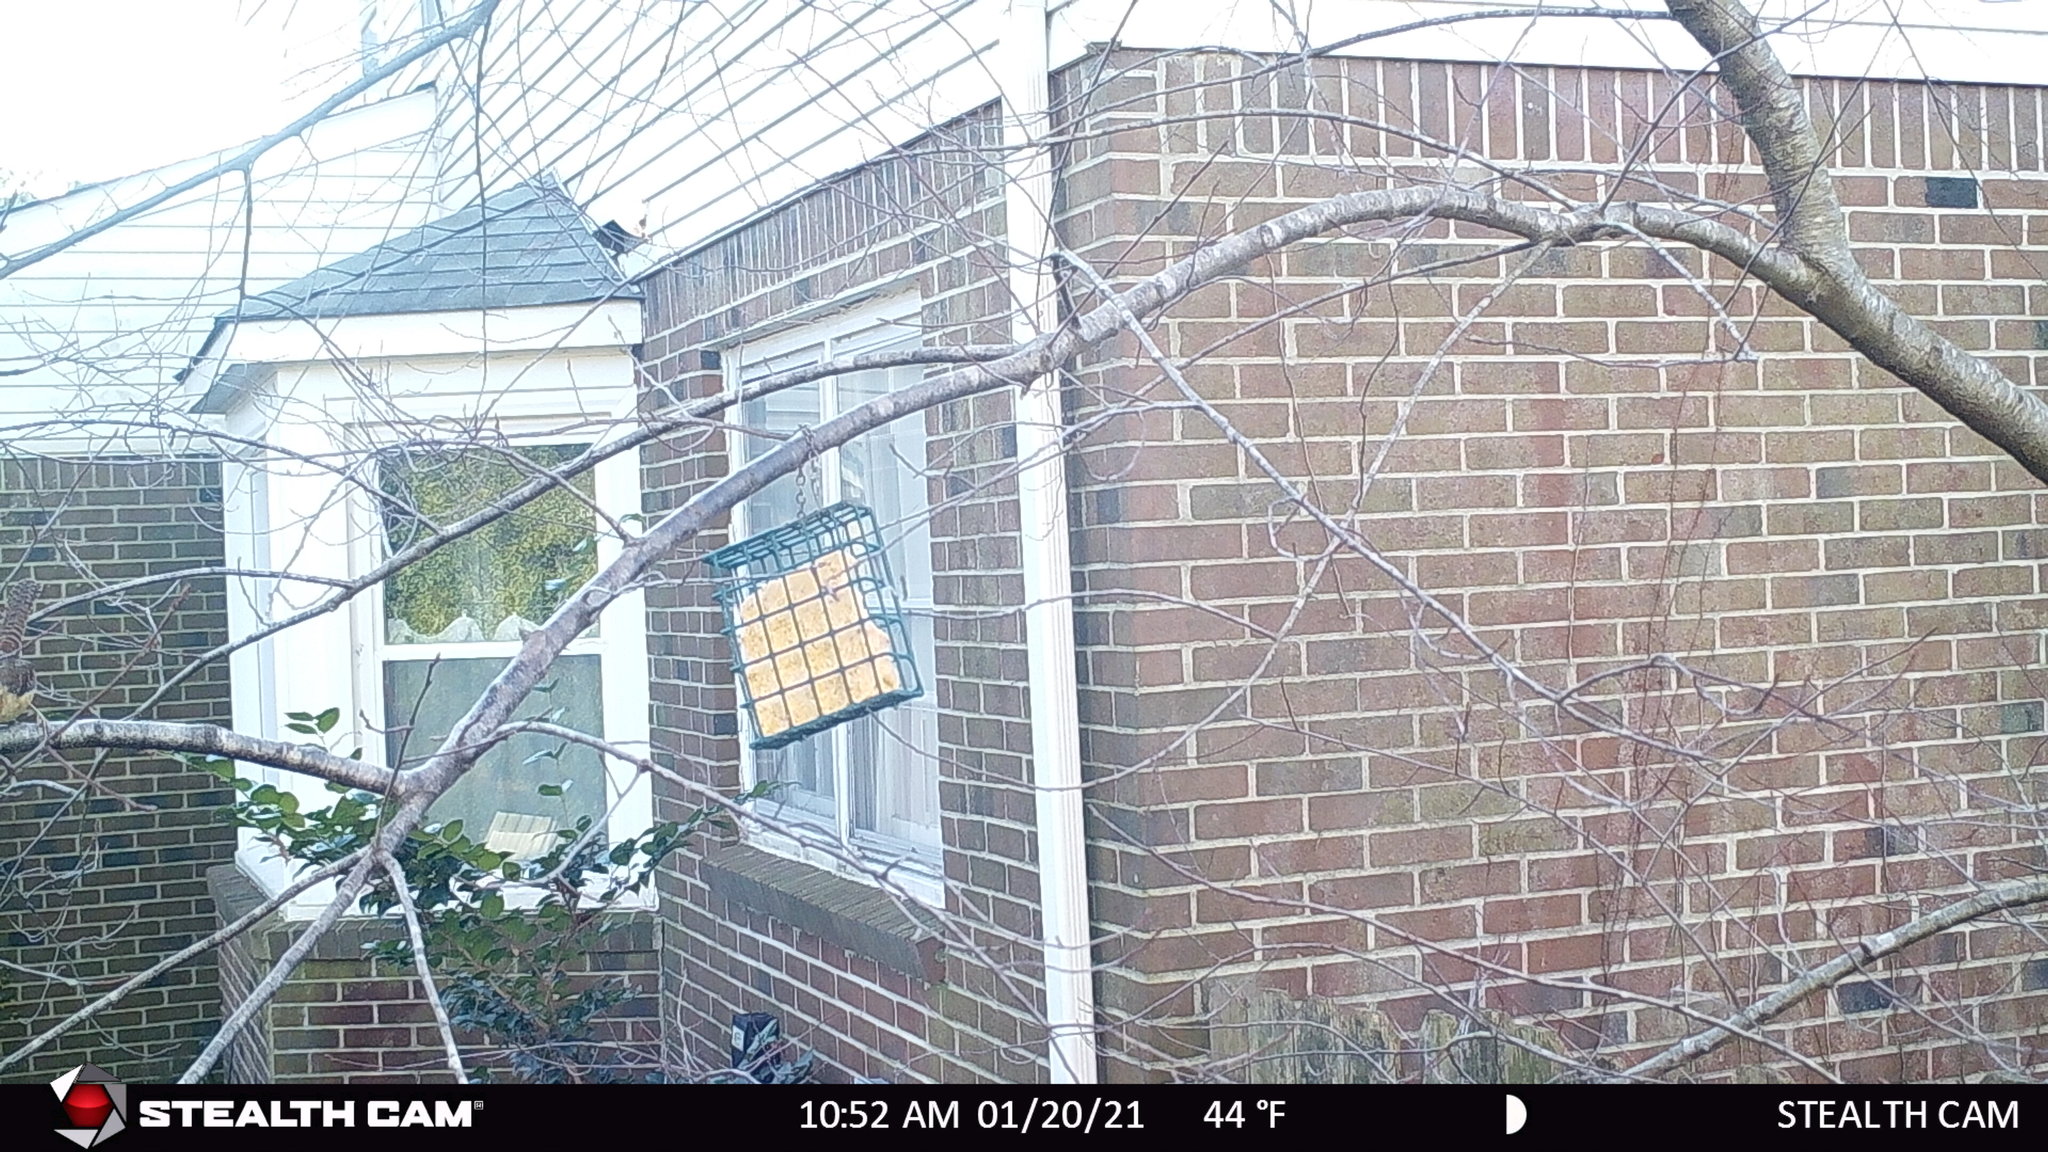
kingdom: Animalia
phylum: Chordata
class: Aves
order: Passeriformes
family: Troglodytidae
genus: Thryothorus
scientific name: Thryothorus ludovicianus
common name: Carolina wren
